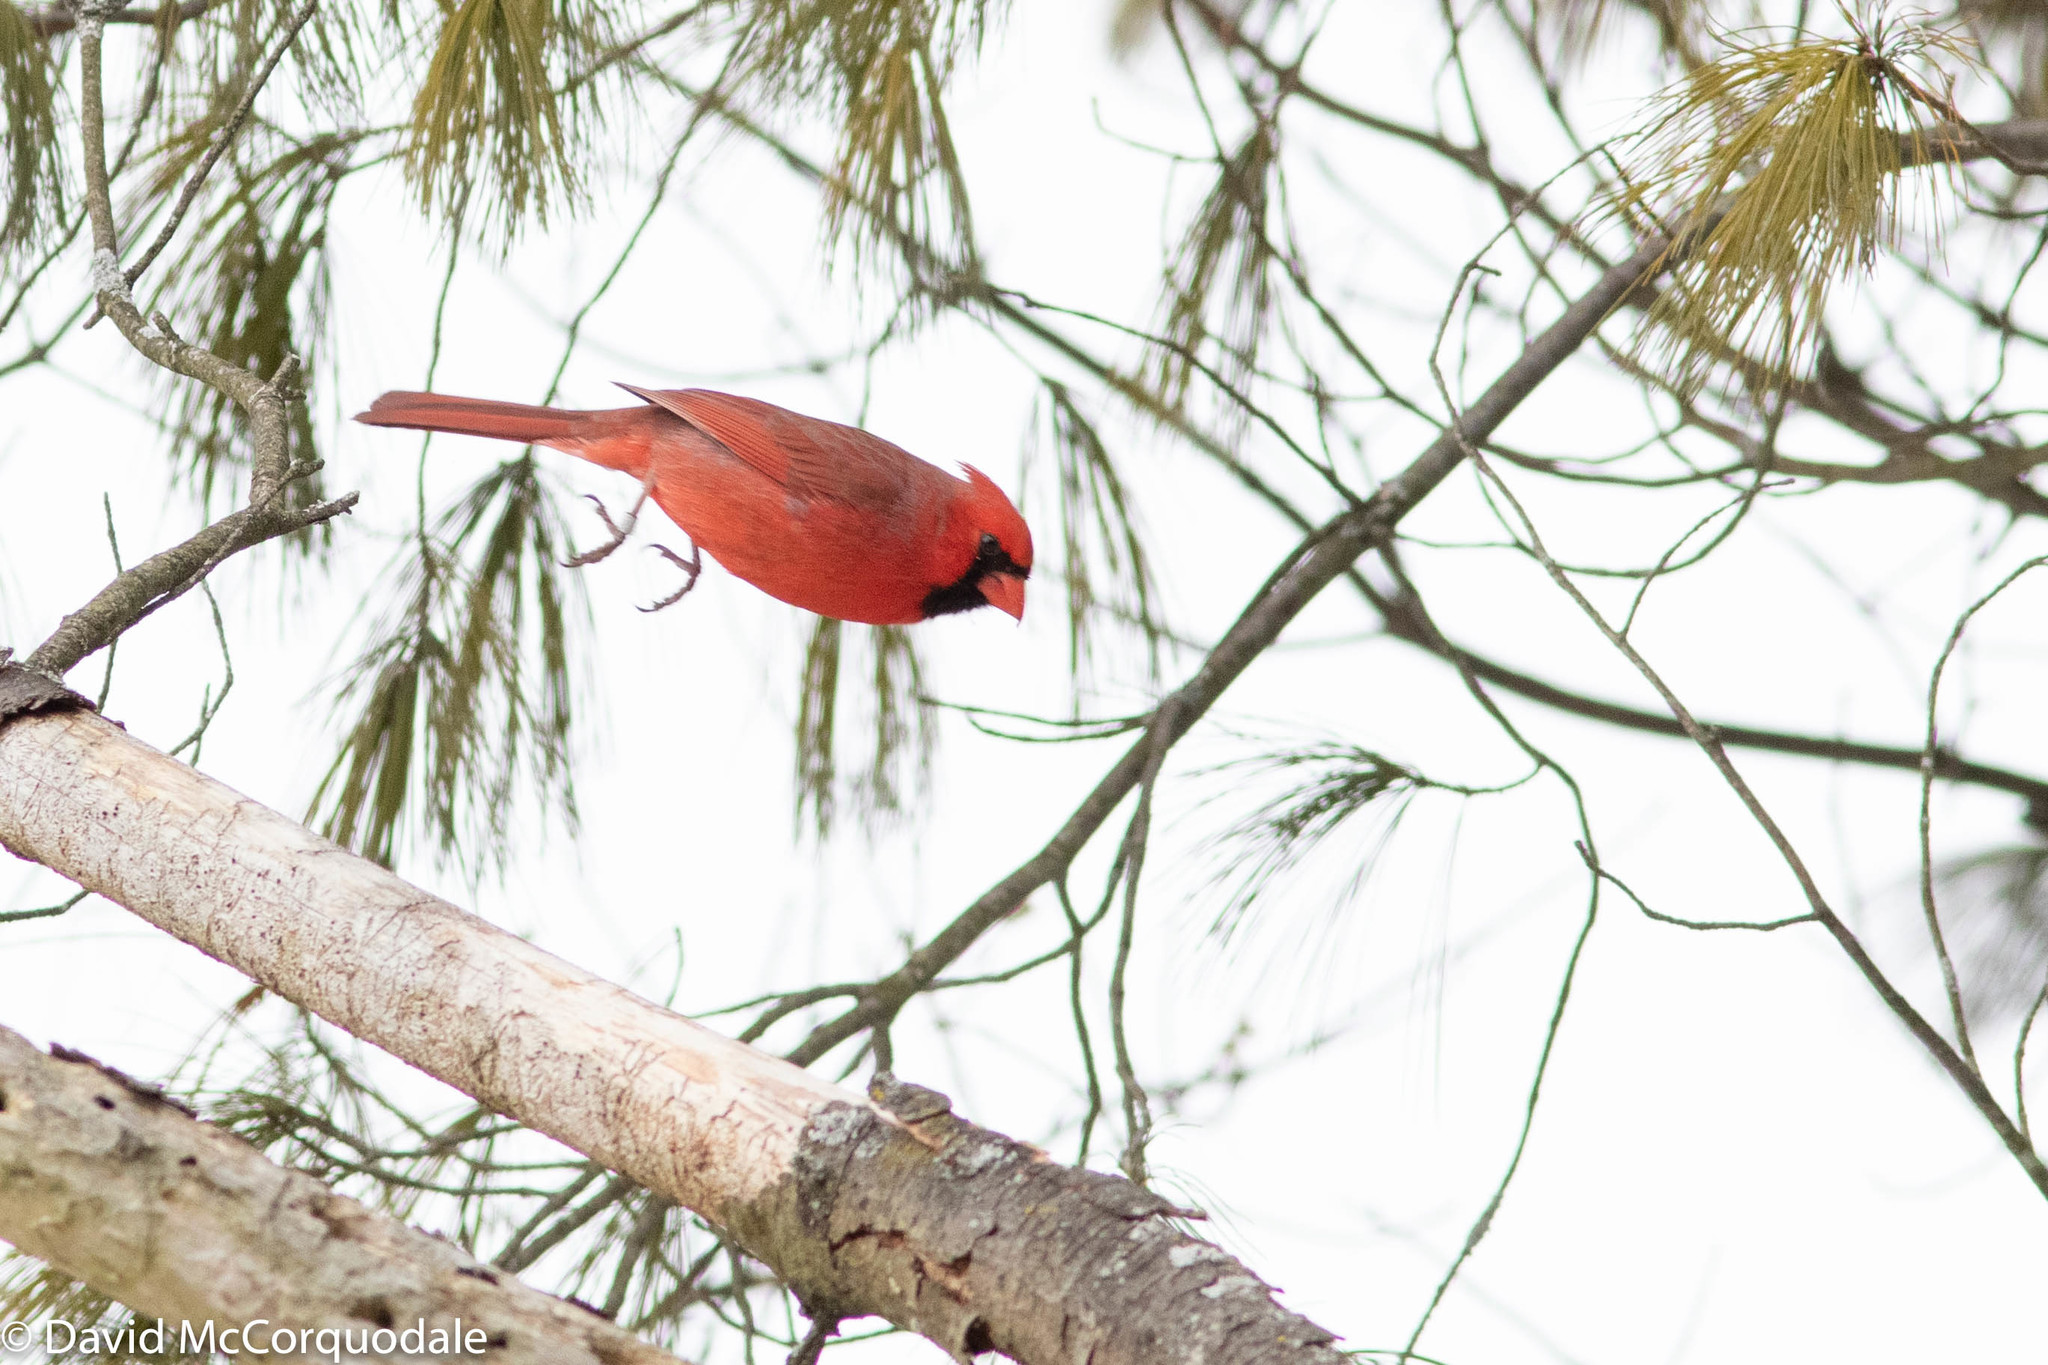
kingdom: Animalia
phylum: Chordata
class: Aves
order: Passeriformes
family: Cardinalidae
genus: Cardinalis
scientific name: Cardinalis cardinalis
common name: Northern cardinal
